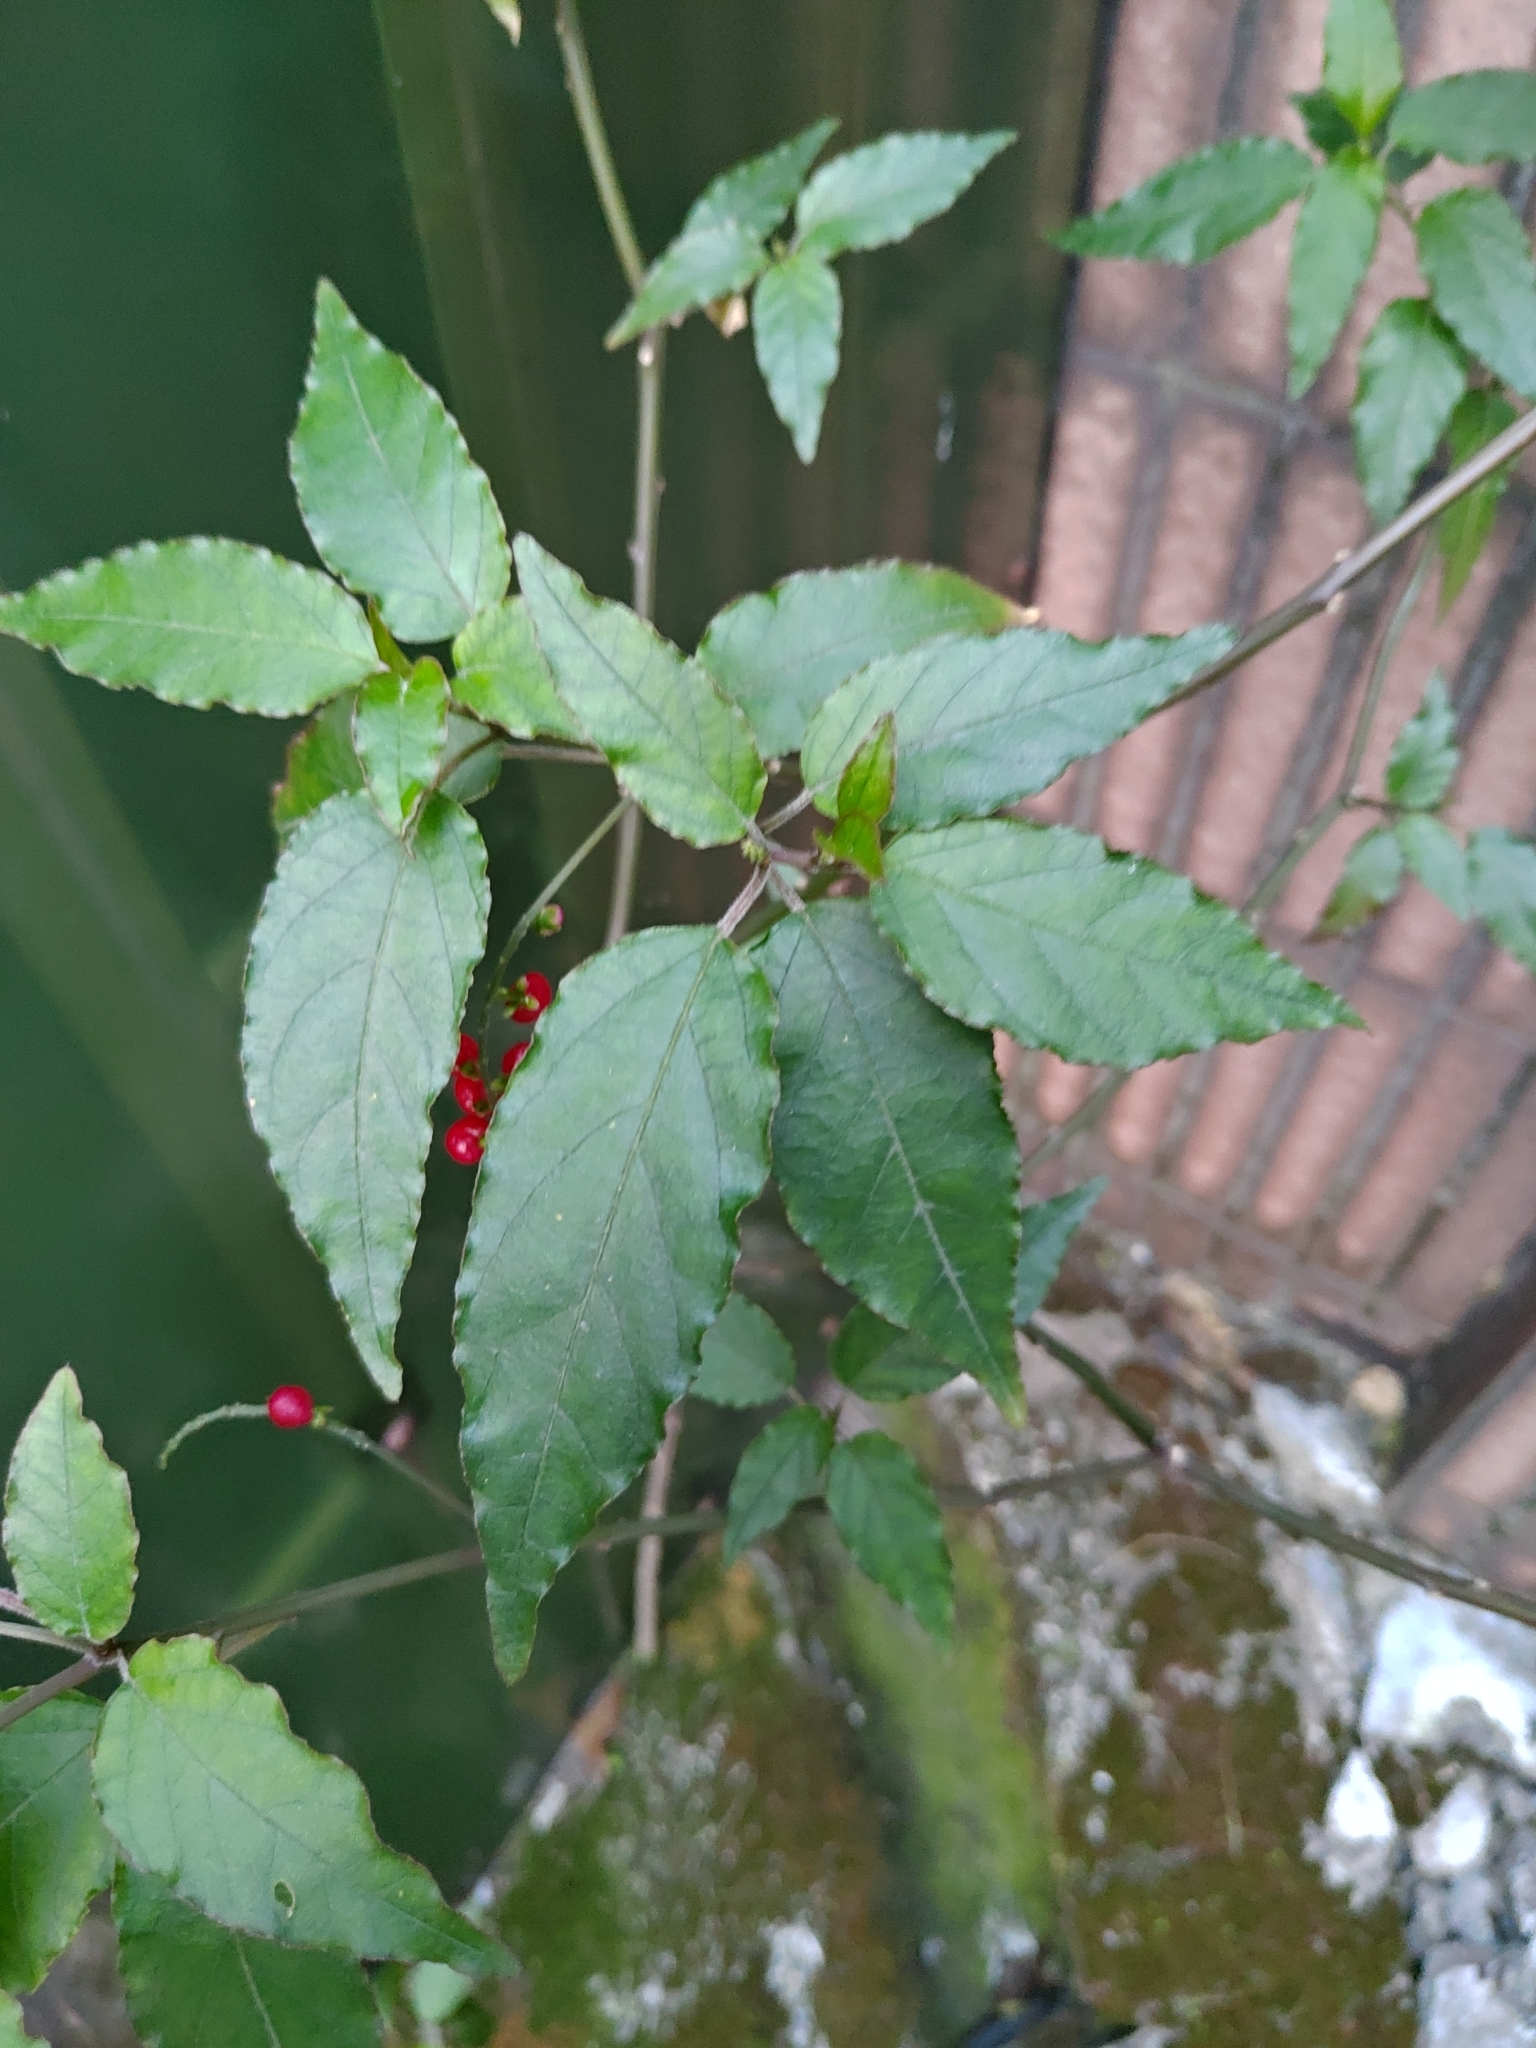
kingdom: Plantae
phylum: Tracheophyta
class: Magnoliopsida
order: Caryophyllales
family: Phytolaccaceae
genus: Rivina
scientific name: Rivina humilis
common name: Rougeplant
